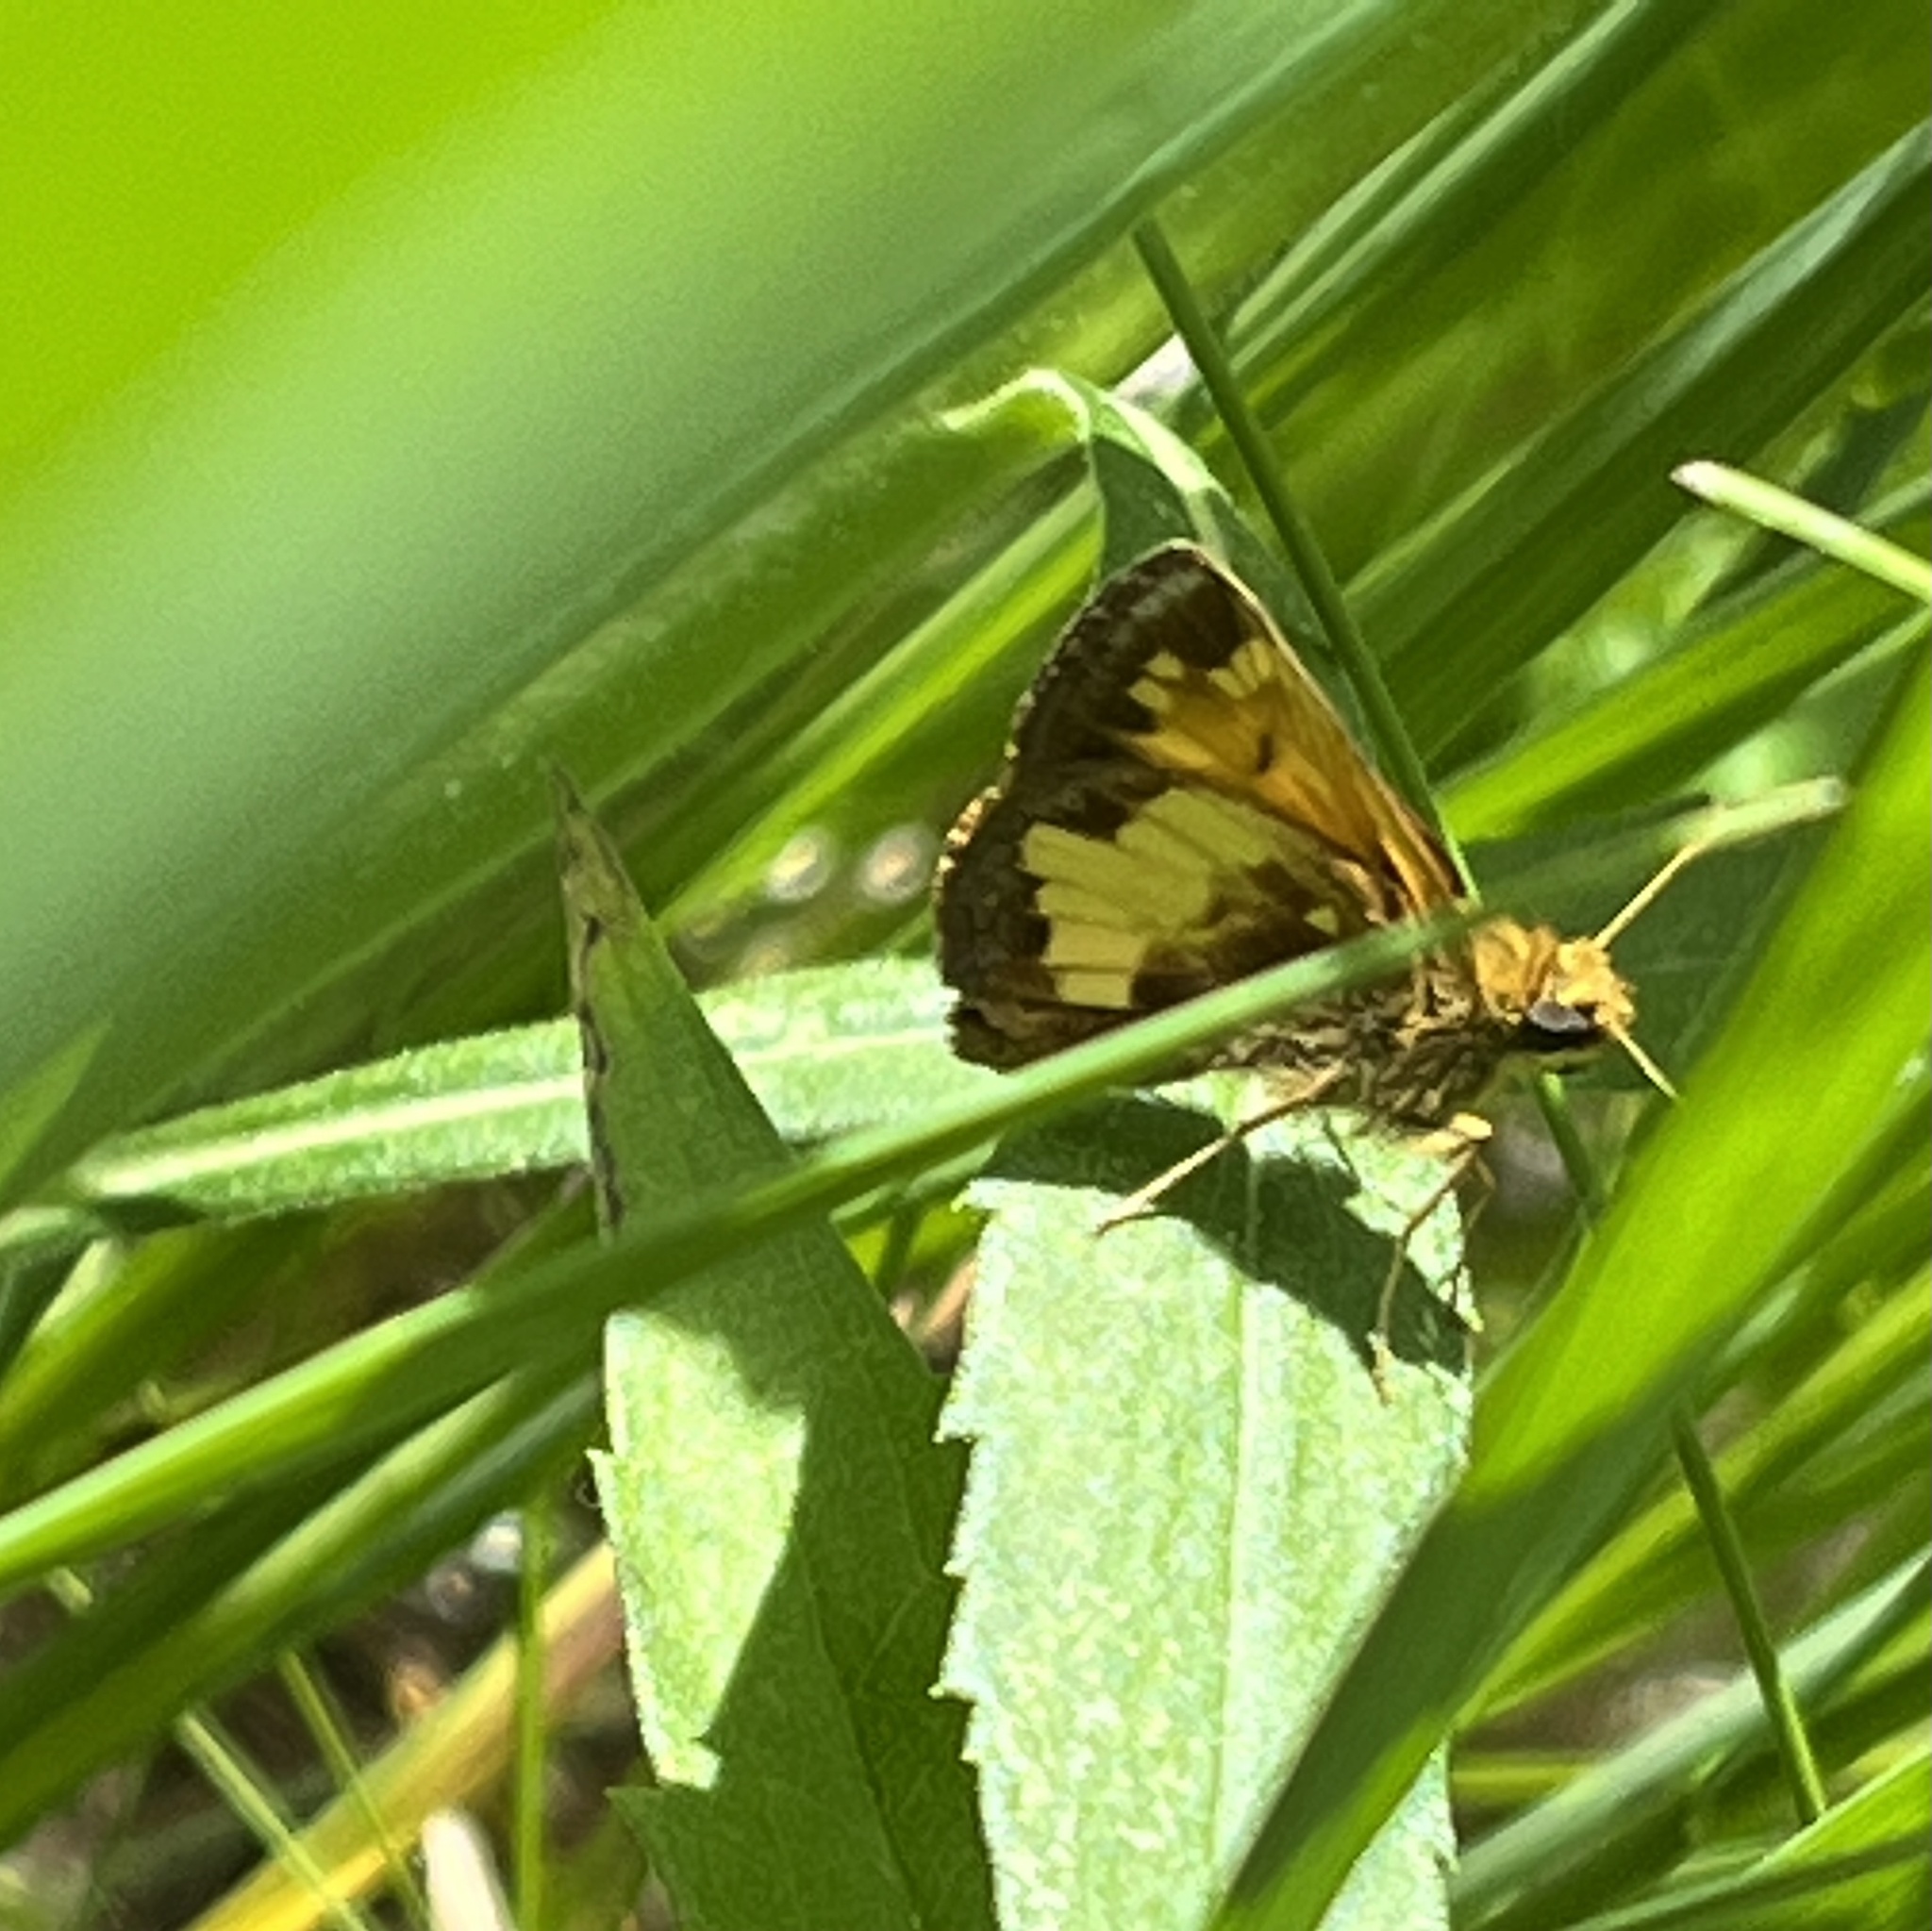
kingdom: Animalia
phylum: Arthropoda
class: Insecta
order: Lepidoptera
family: Hesperiidae
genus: Lon
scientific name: Lon hobomok
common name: Hobomok skipper
